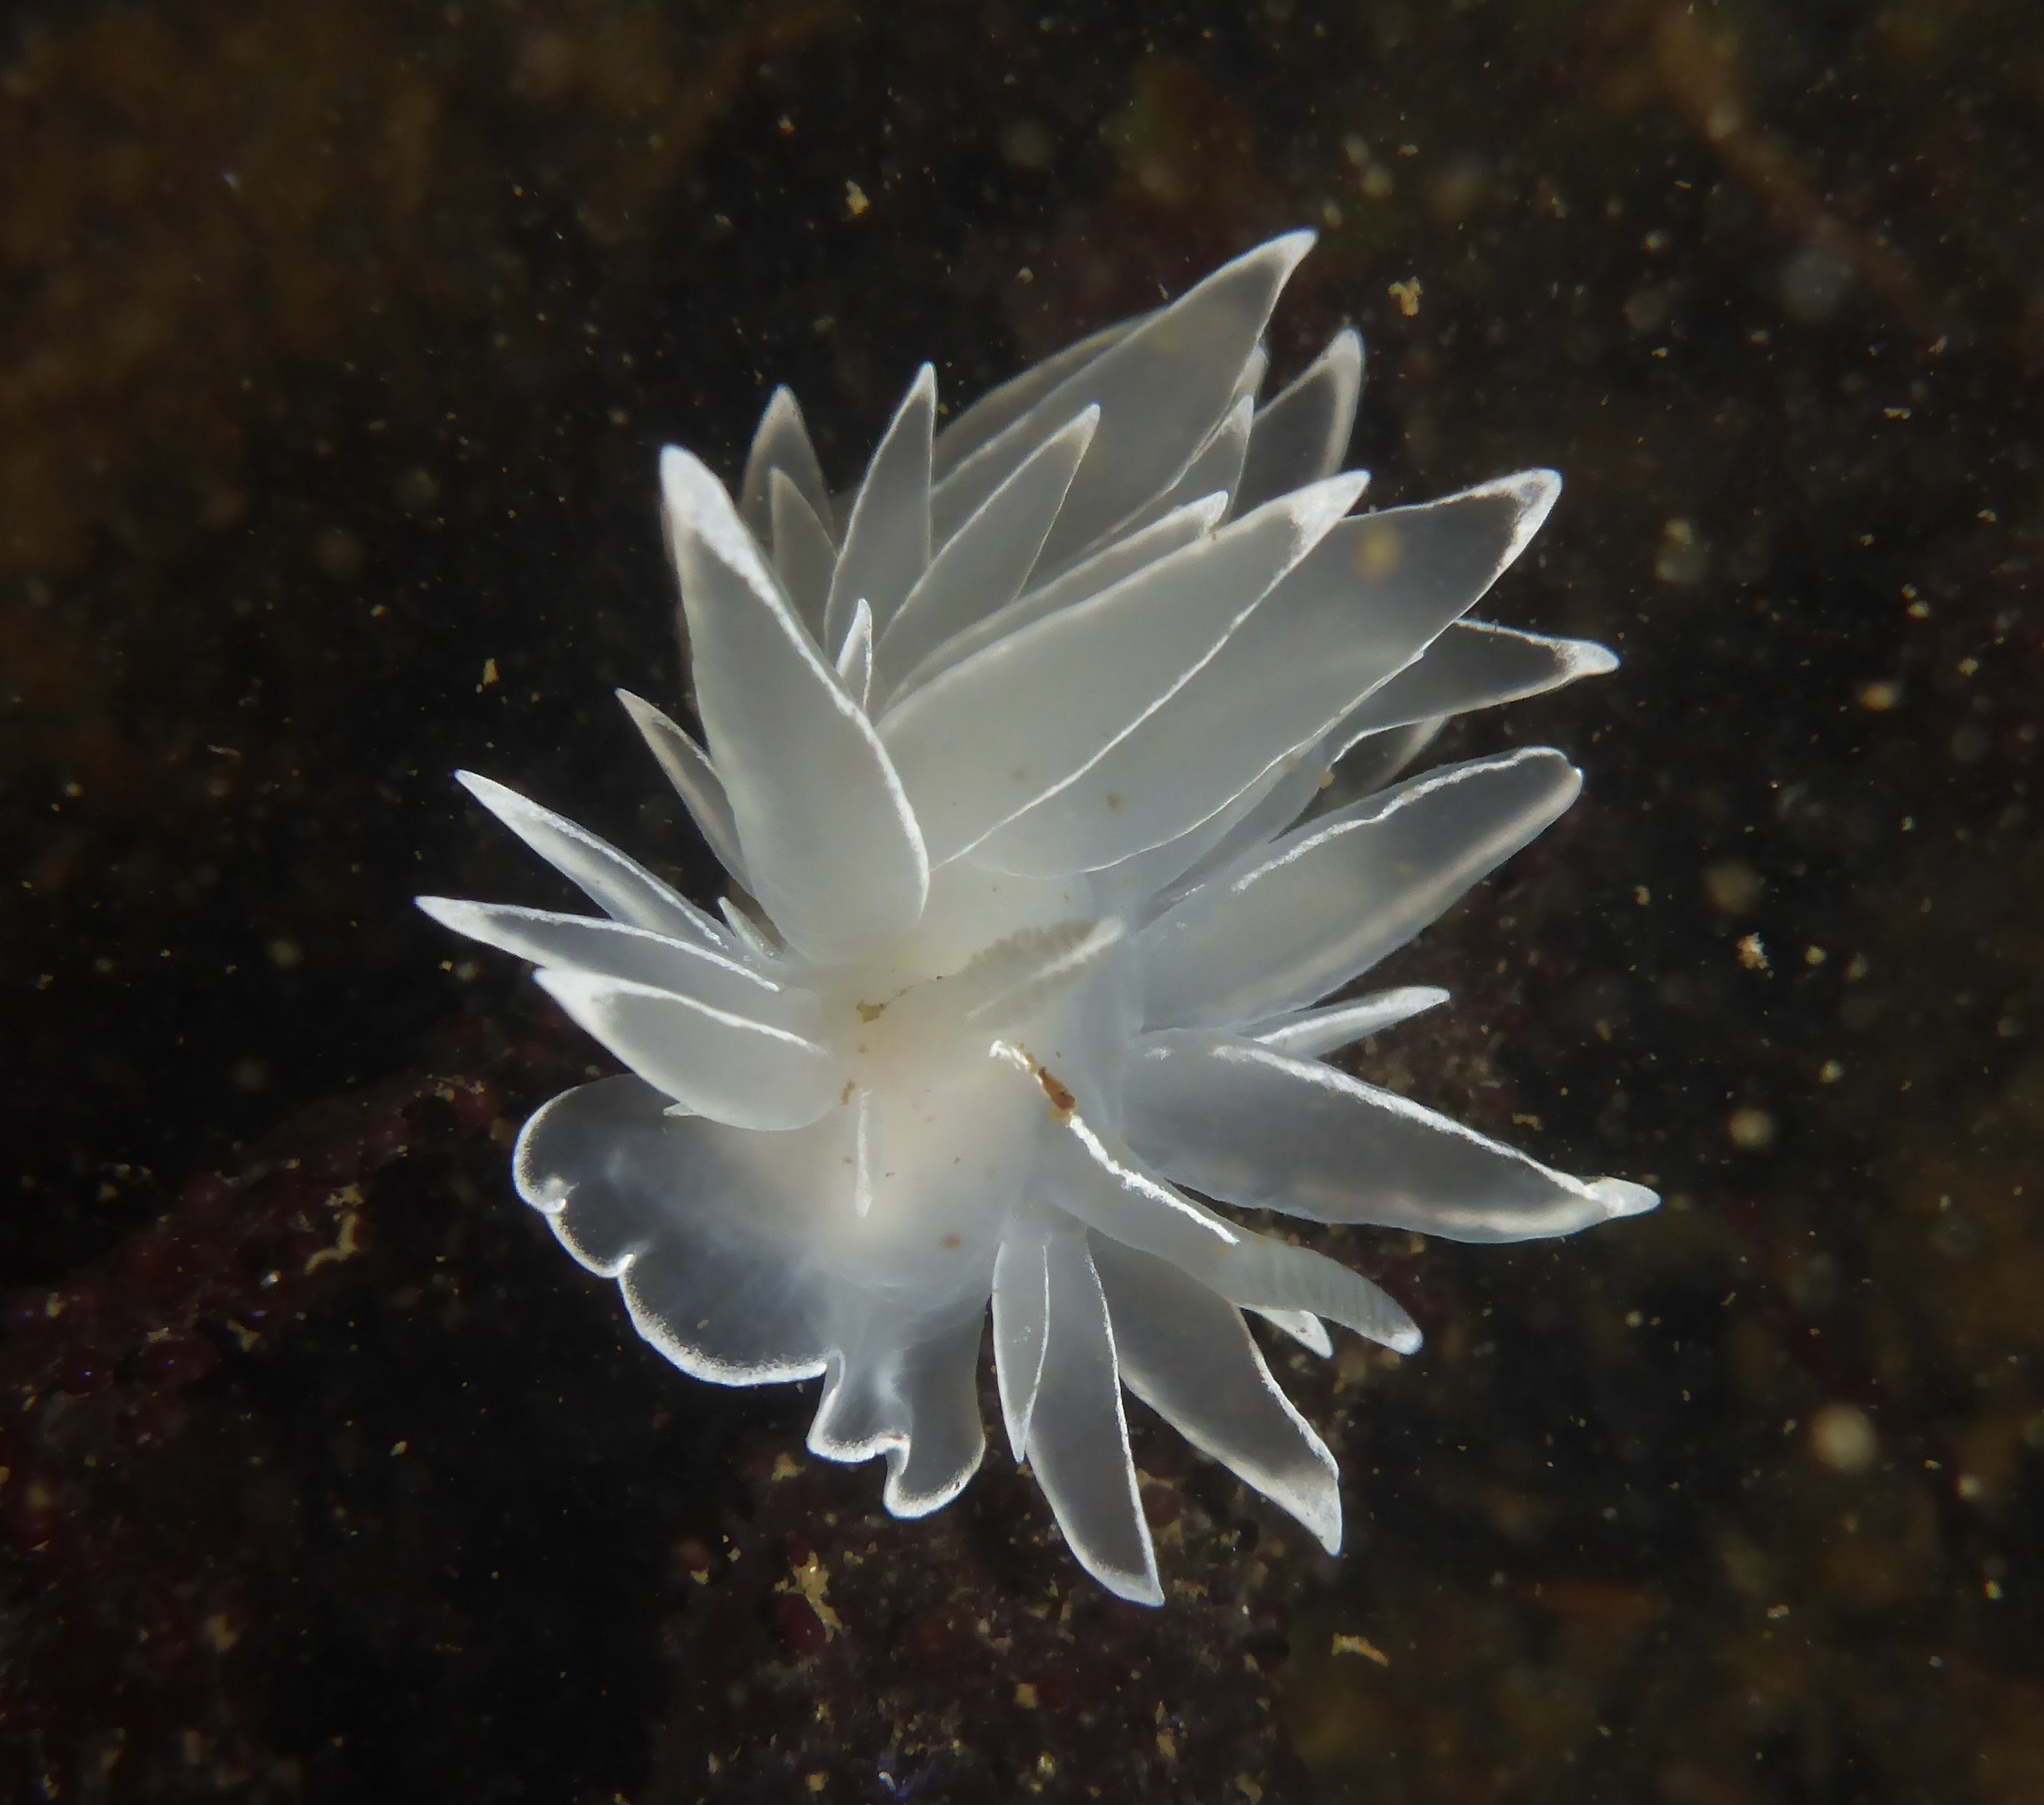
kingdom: Animalia
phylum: Mollusca
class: Gastropoda
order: Nudibranchia
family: Dironidae
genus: Dirona
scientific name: Dirona albolineata
